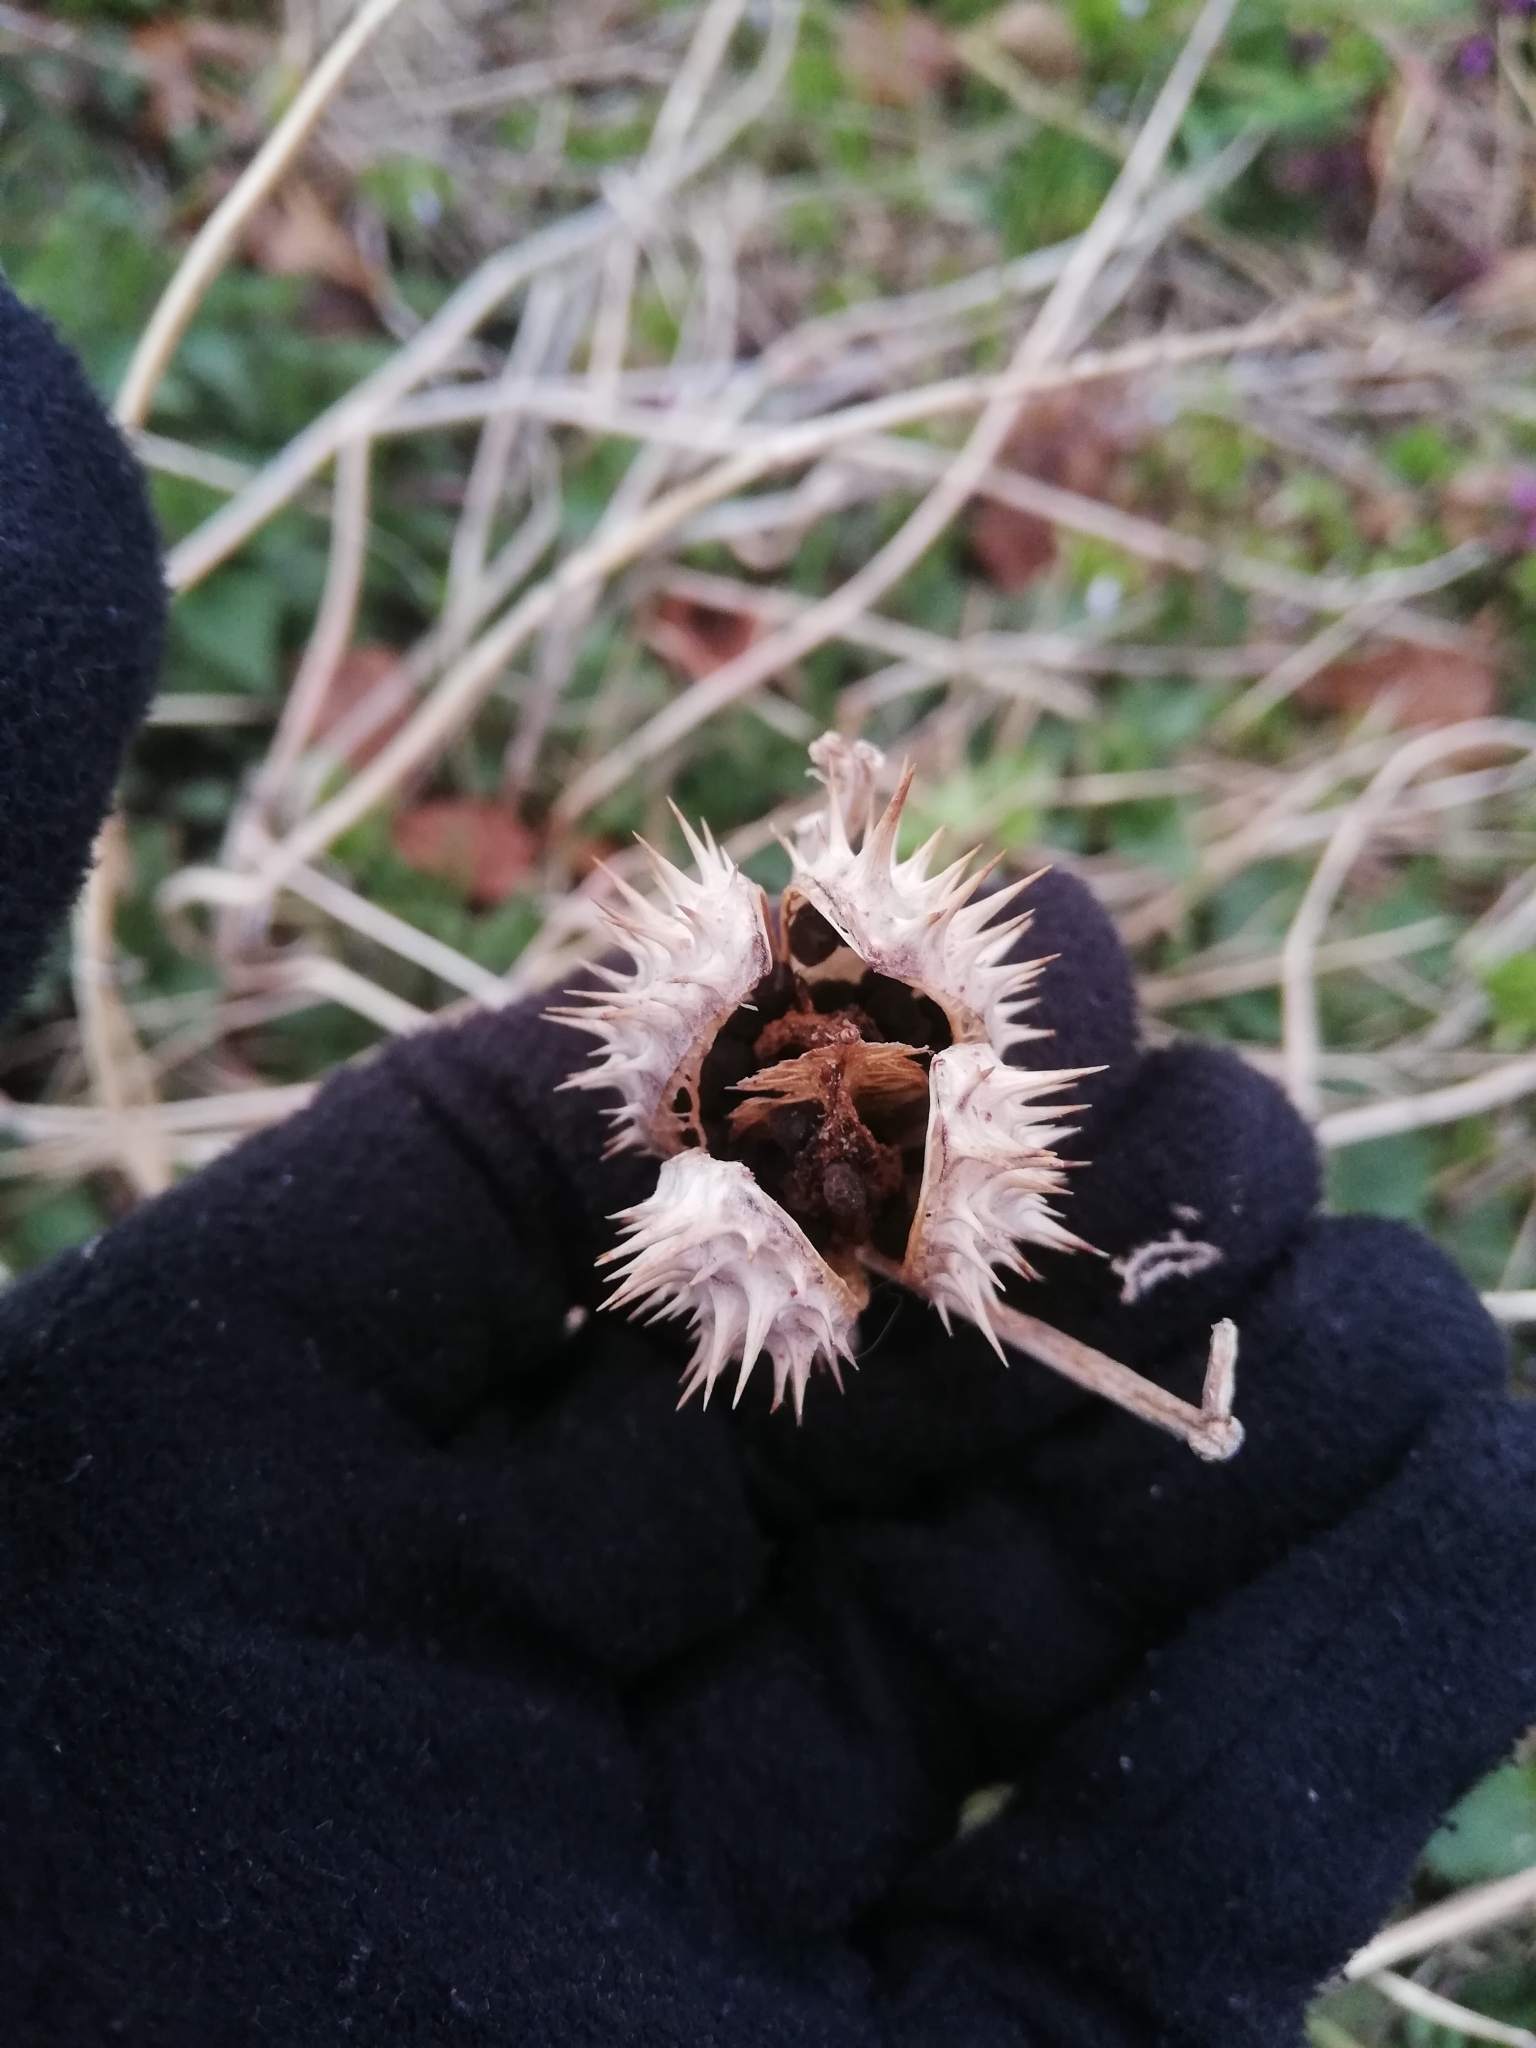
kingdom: Plantae
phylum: Tracheophyta
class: Magnoliopsida
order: Solanales
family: Solanaceae
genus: Datura
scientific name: Datura stramonium
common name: Thorn-apple
